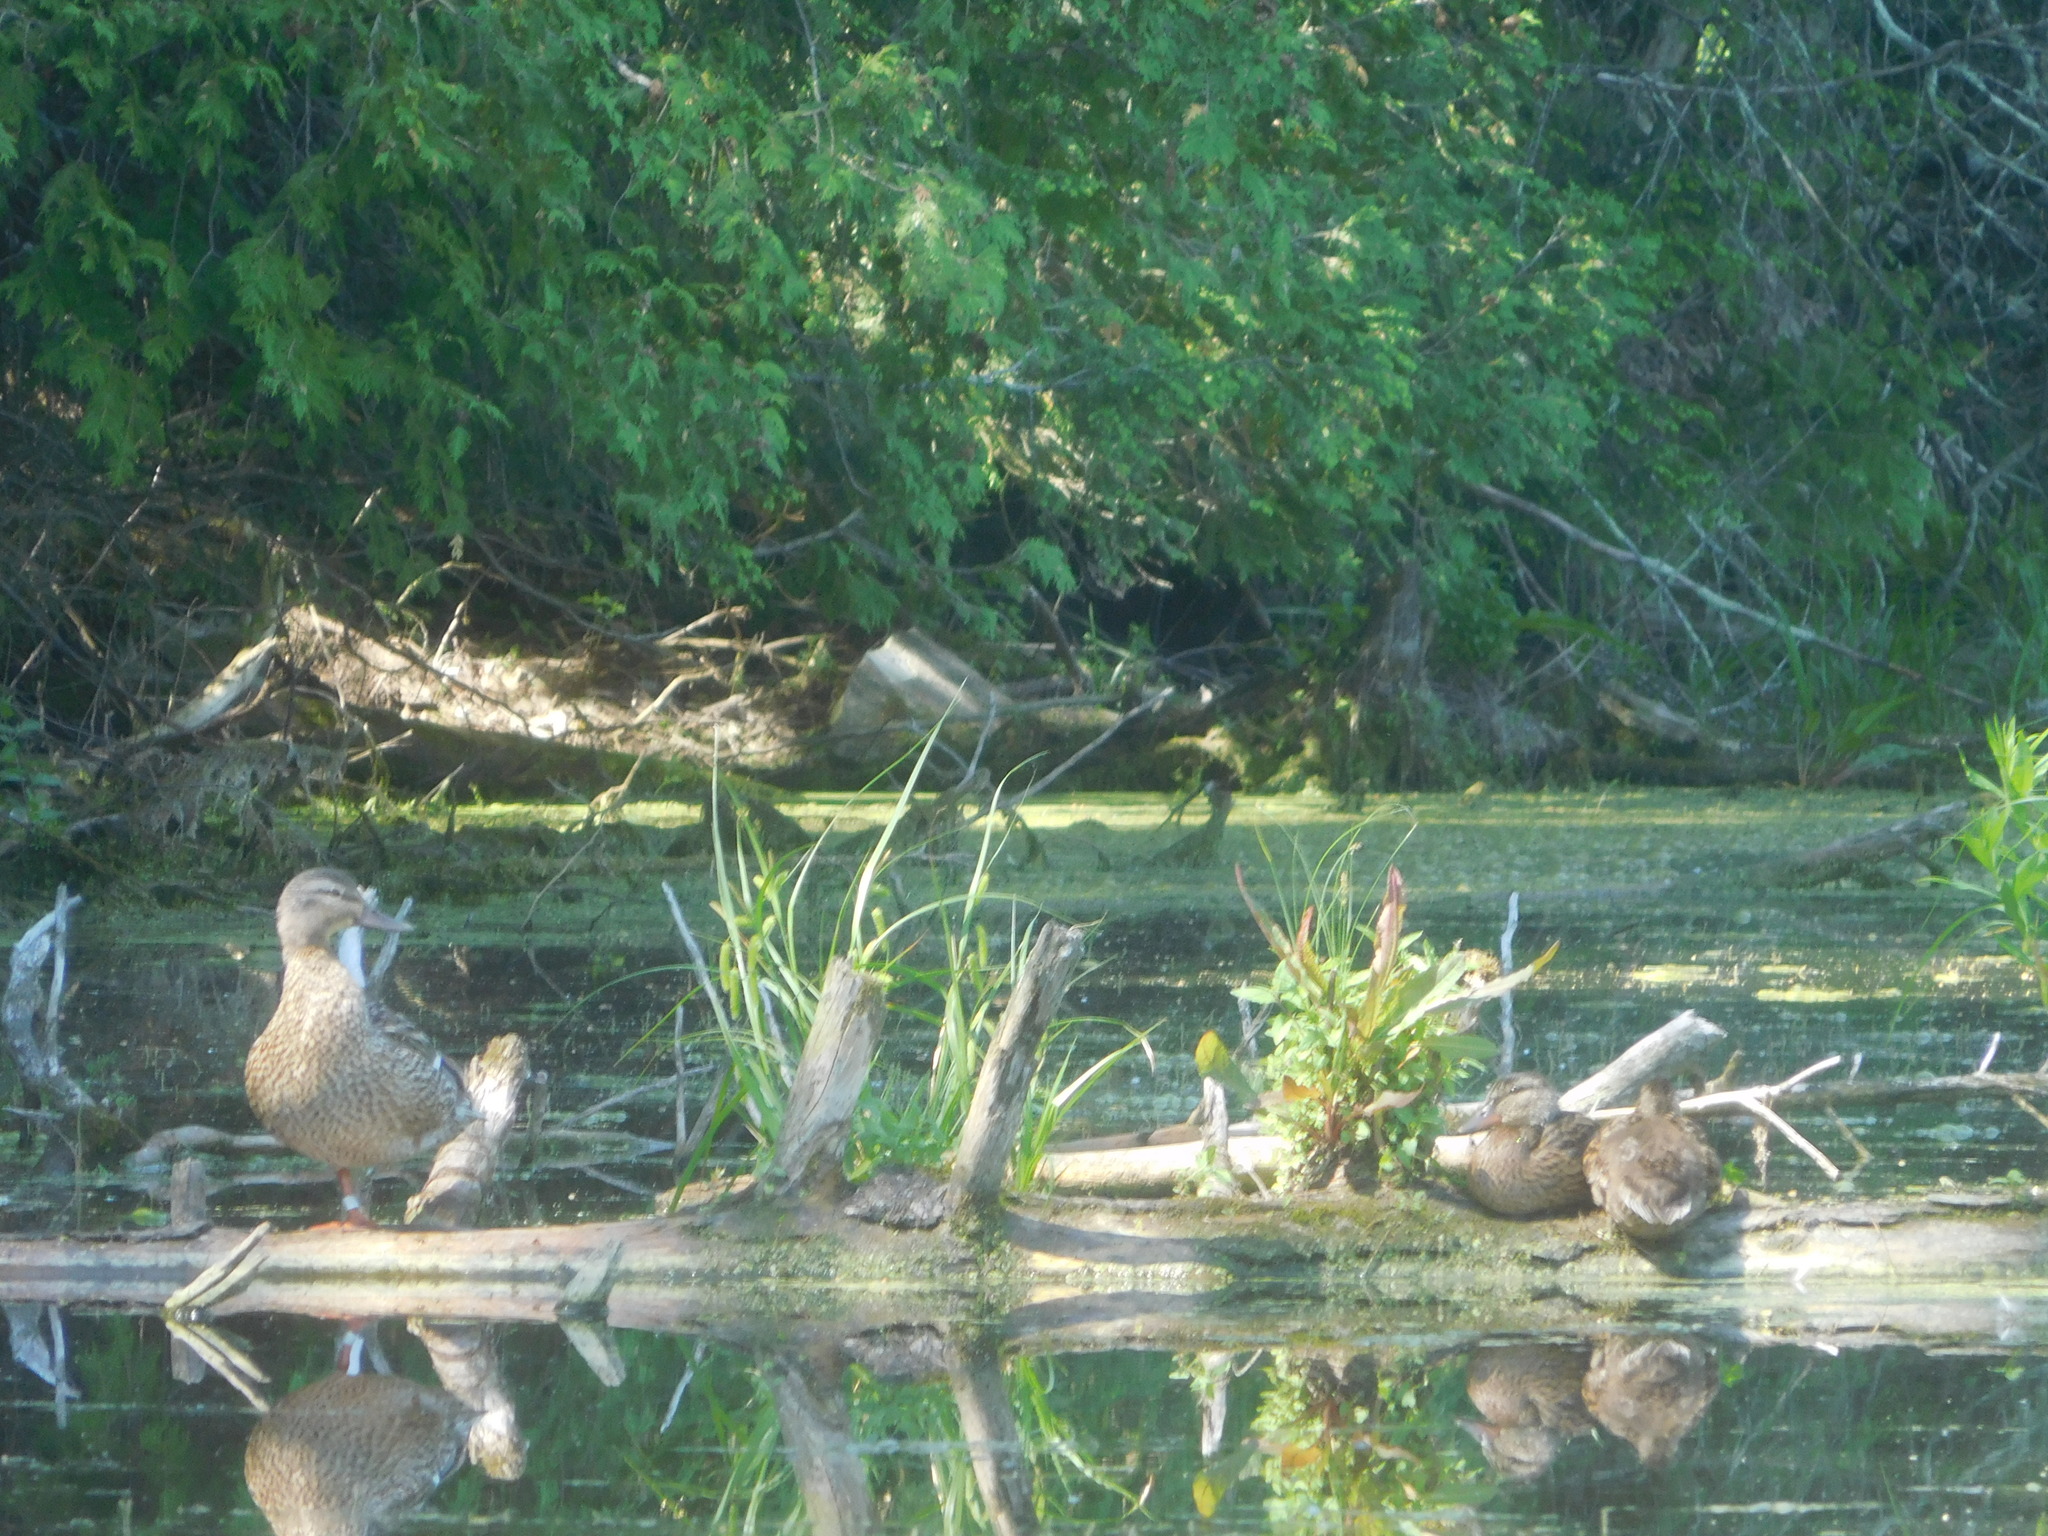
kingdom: Animalia
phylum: Chordata
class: Aves
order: Anseriformes
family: Anatidae
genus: Anas
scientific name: Anas platyrhynchos
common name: Mallard
